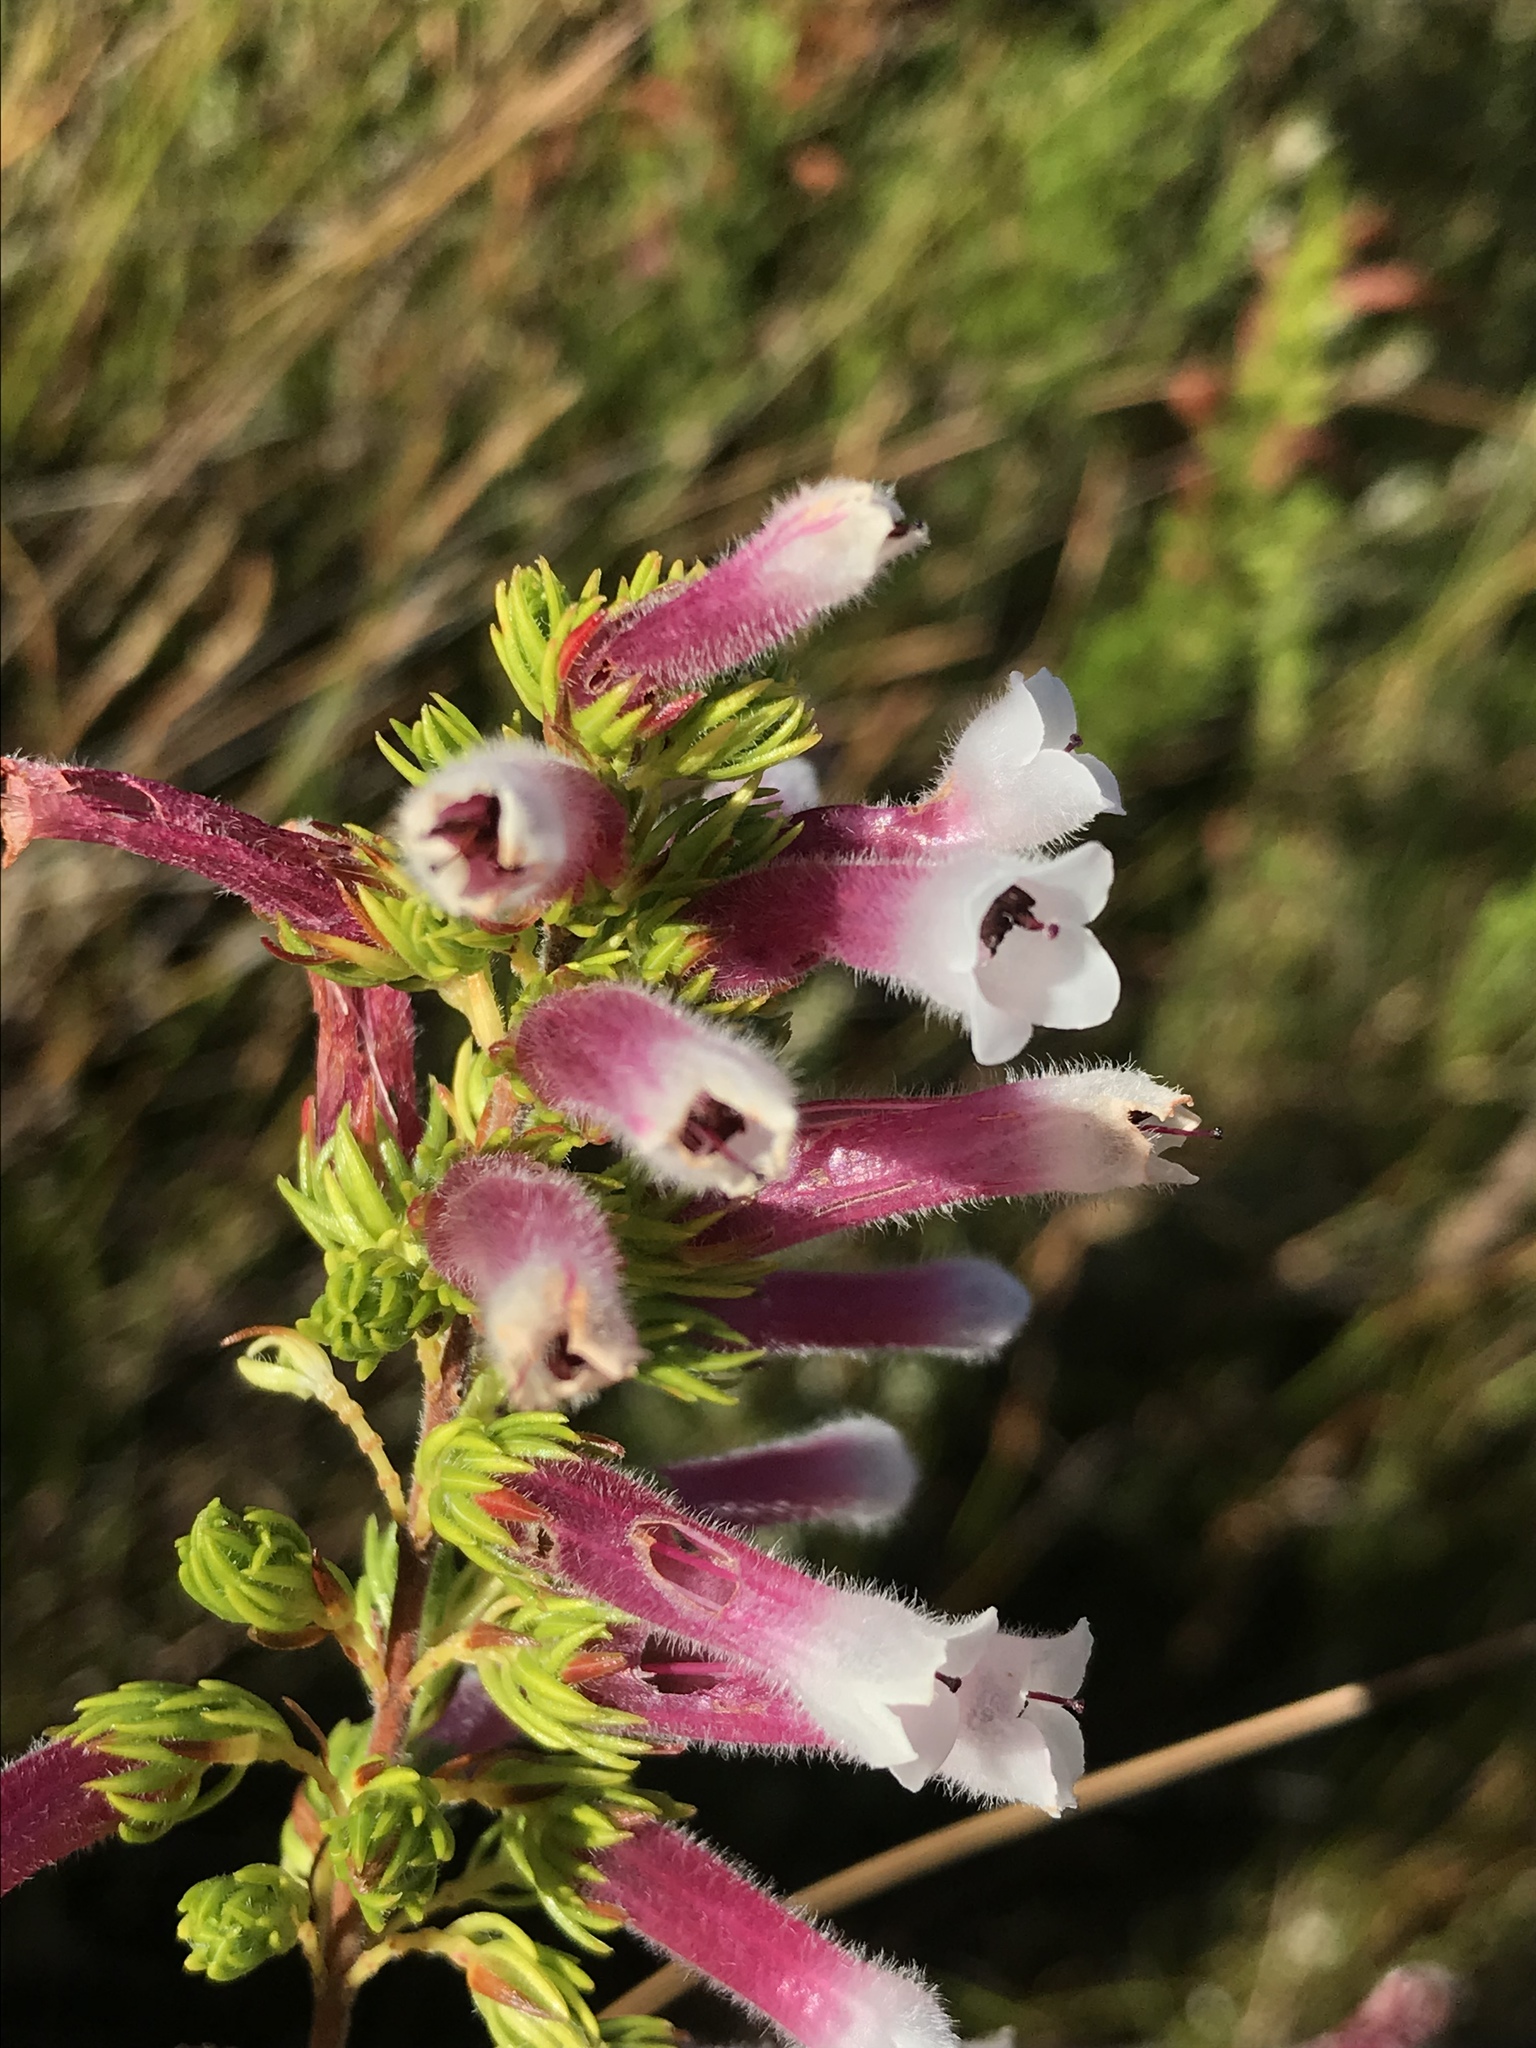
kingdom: Plantae
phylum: Tracheophyta
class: Magnoliopsida
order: Ericales
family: Ericaceae
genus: Erica
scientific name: Erica macowanii
